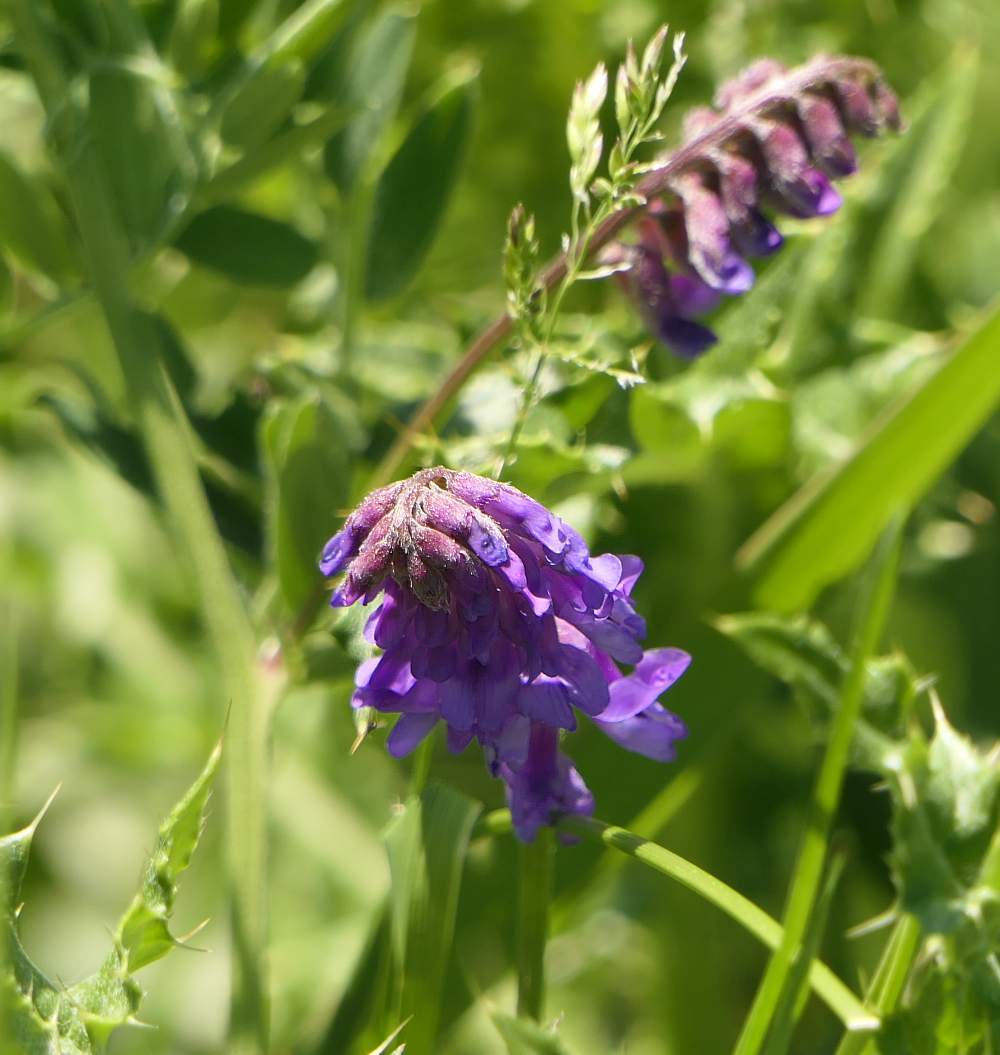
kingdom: Plantae
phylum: Tracheophyta
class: Magnoliopsida
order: Fabales
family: Fabaceae
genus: Vicia
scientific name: Vicia cracca
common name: Bird vetch
